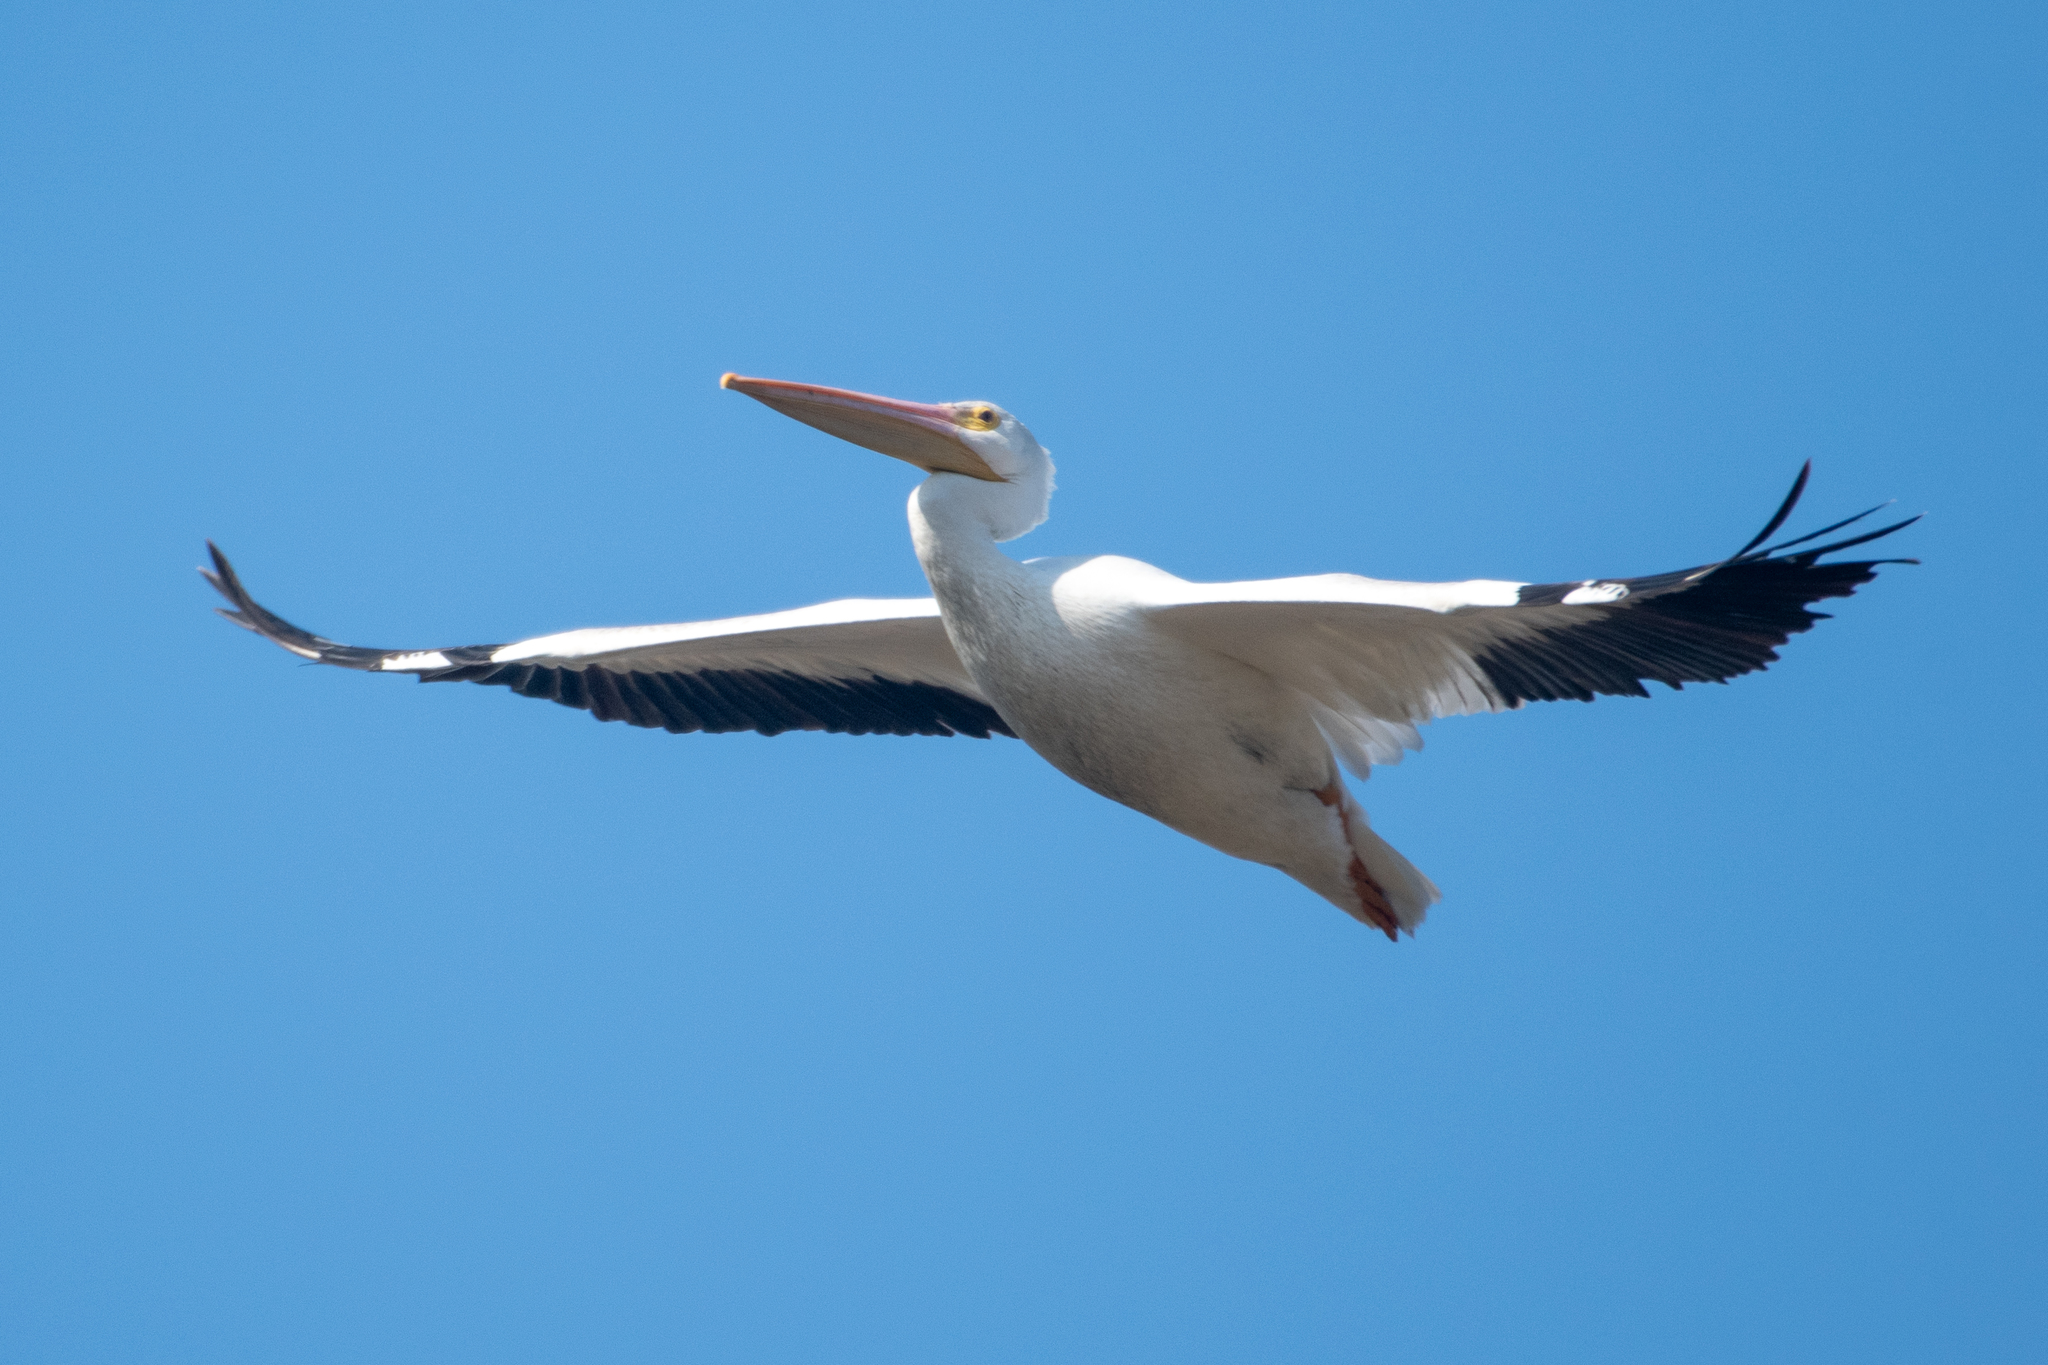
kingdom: Animalia
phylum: Chordata
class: Aves
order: Pelecaniformes
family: Pelecanidae
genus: Pelecanus
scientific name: Pelecanus erythrorhynchos
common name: American white pelican
